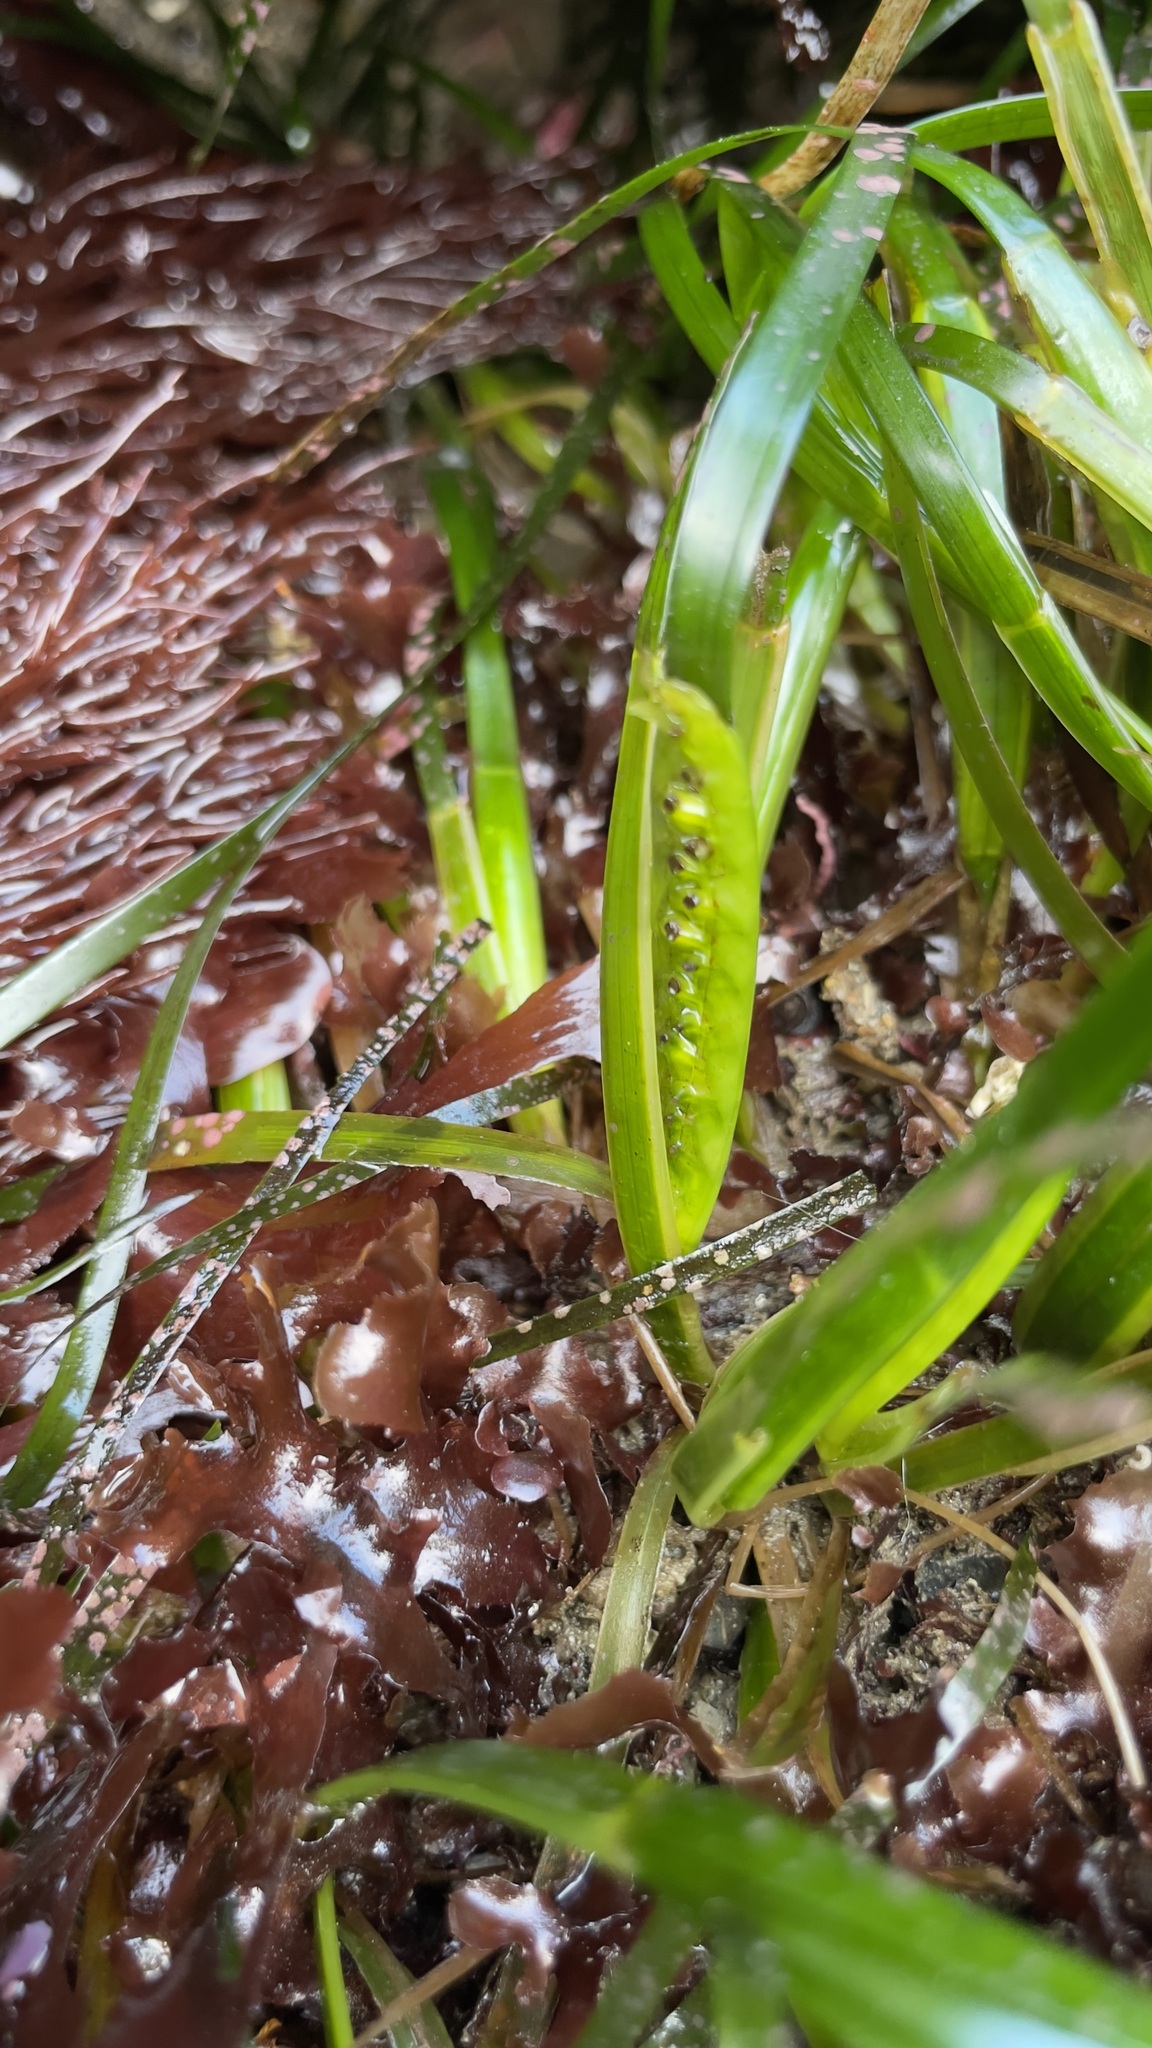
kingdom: Plantae
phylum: Tracheophyta
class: Liliopsida
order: Alismatales
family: Zosteraceae
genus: Phyllospadix
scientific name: Phyllospadix scouleri
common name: Species code: ps
